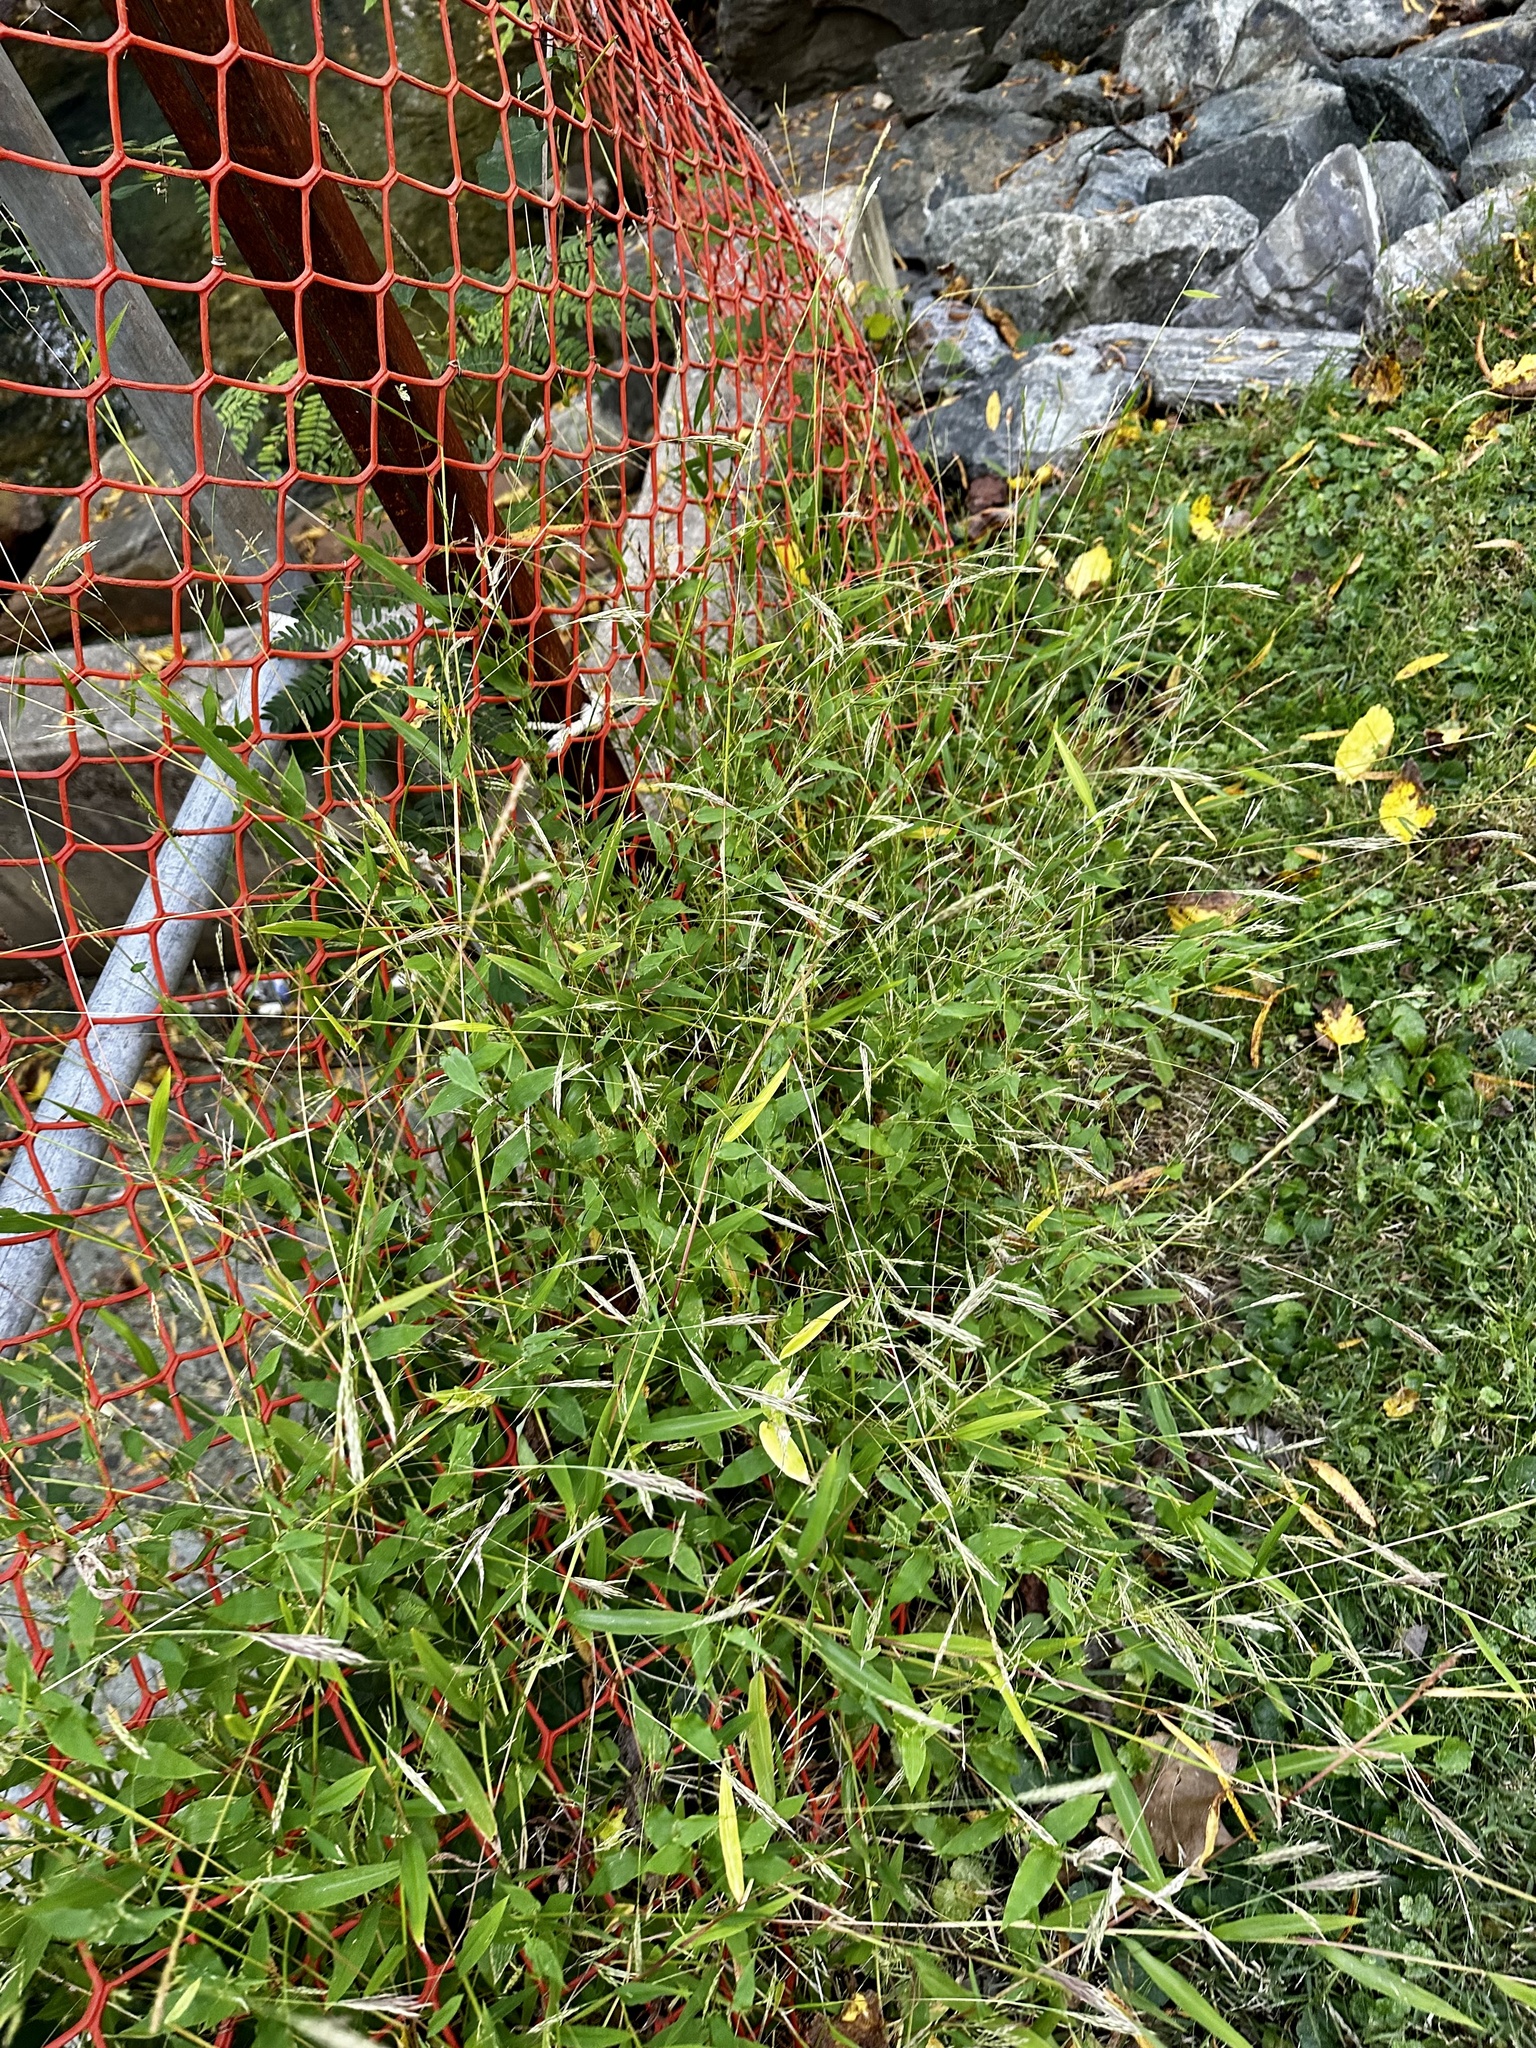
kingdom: Plantae
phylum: Tracheophyta
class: Liliopsida
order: Poales
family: Poaceae
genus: Arthraxon
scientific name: Arthraxon hispidus
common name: Small carpgrass
